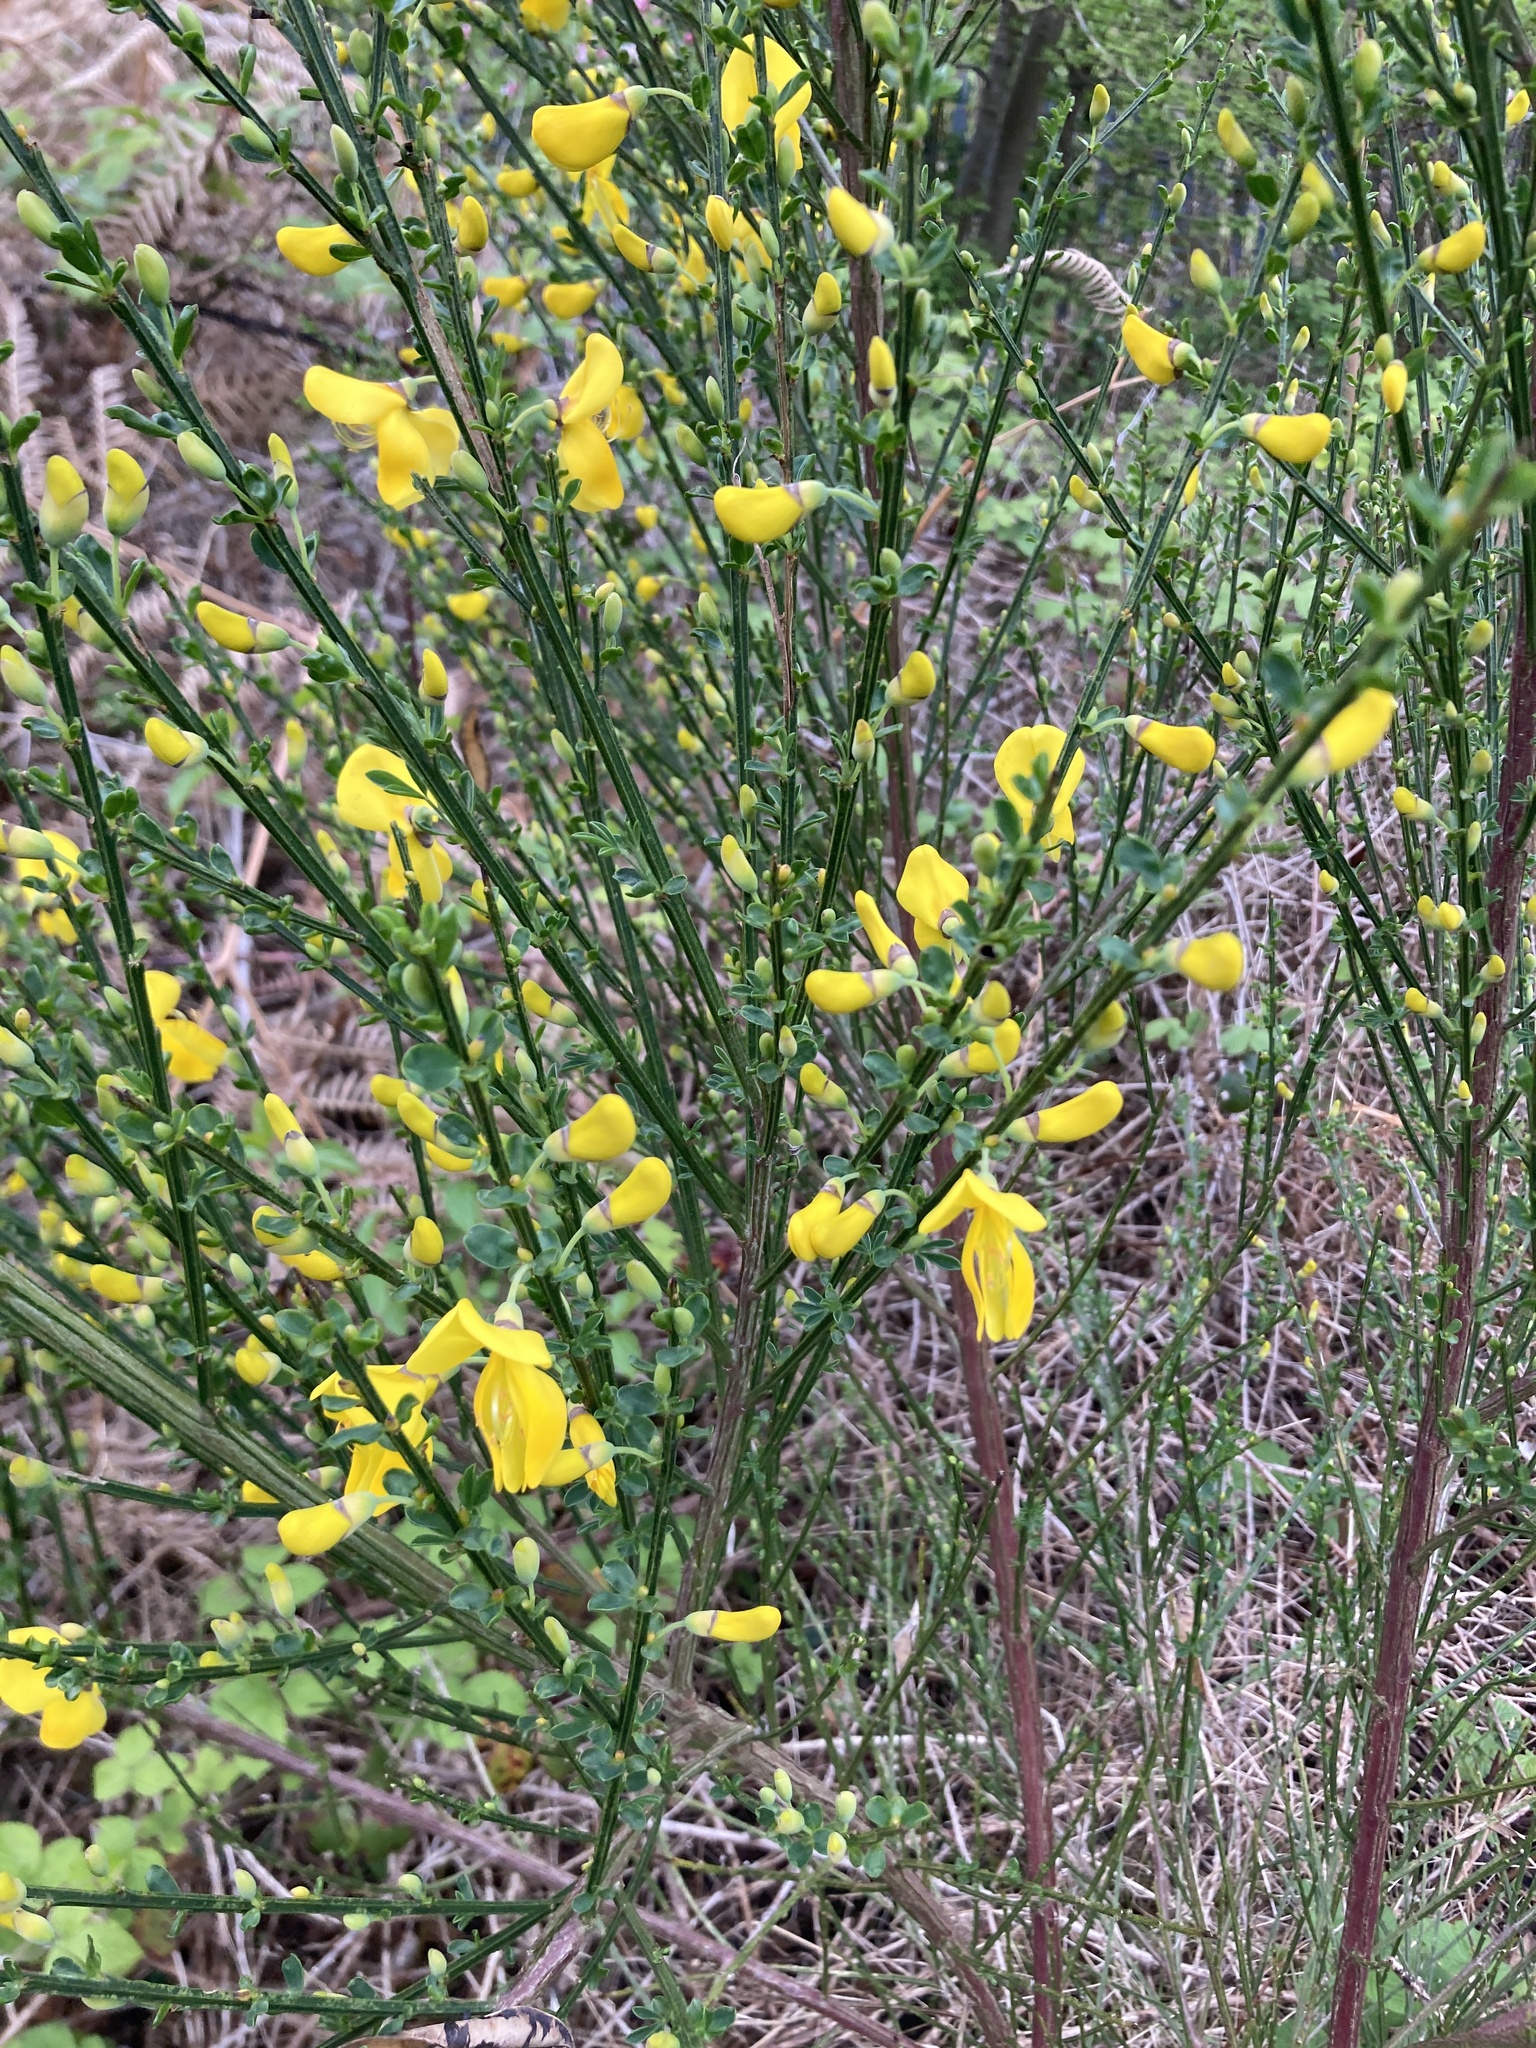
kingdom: Plantae
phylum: Tracheophyta
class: Magnoliopsida
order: Fabales
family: Fabaceae
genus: Cytisus
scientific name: Cytisus scoparius
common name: Scotch broom
